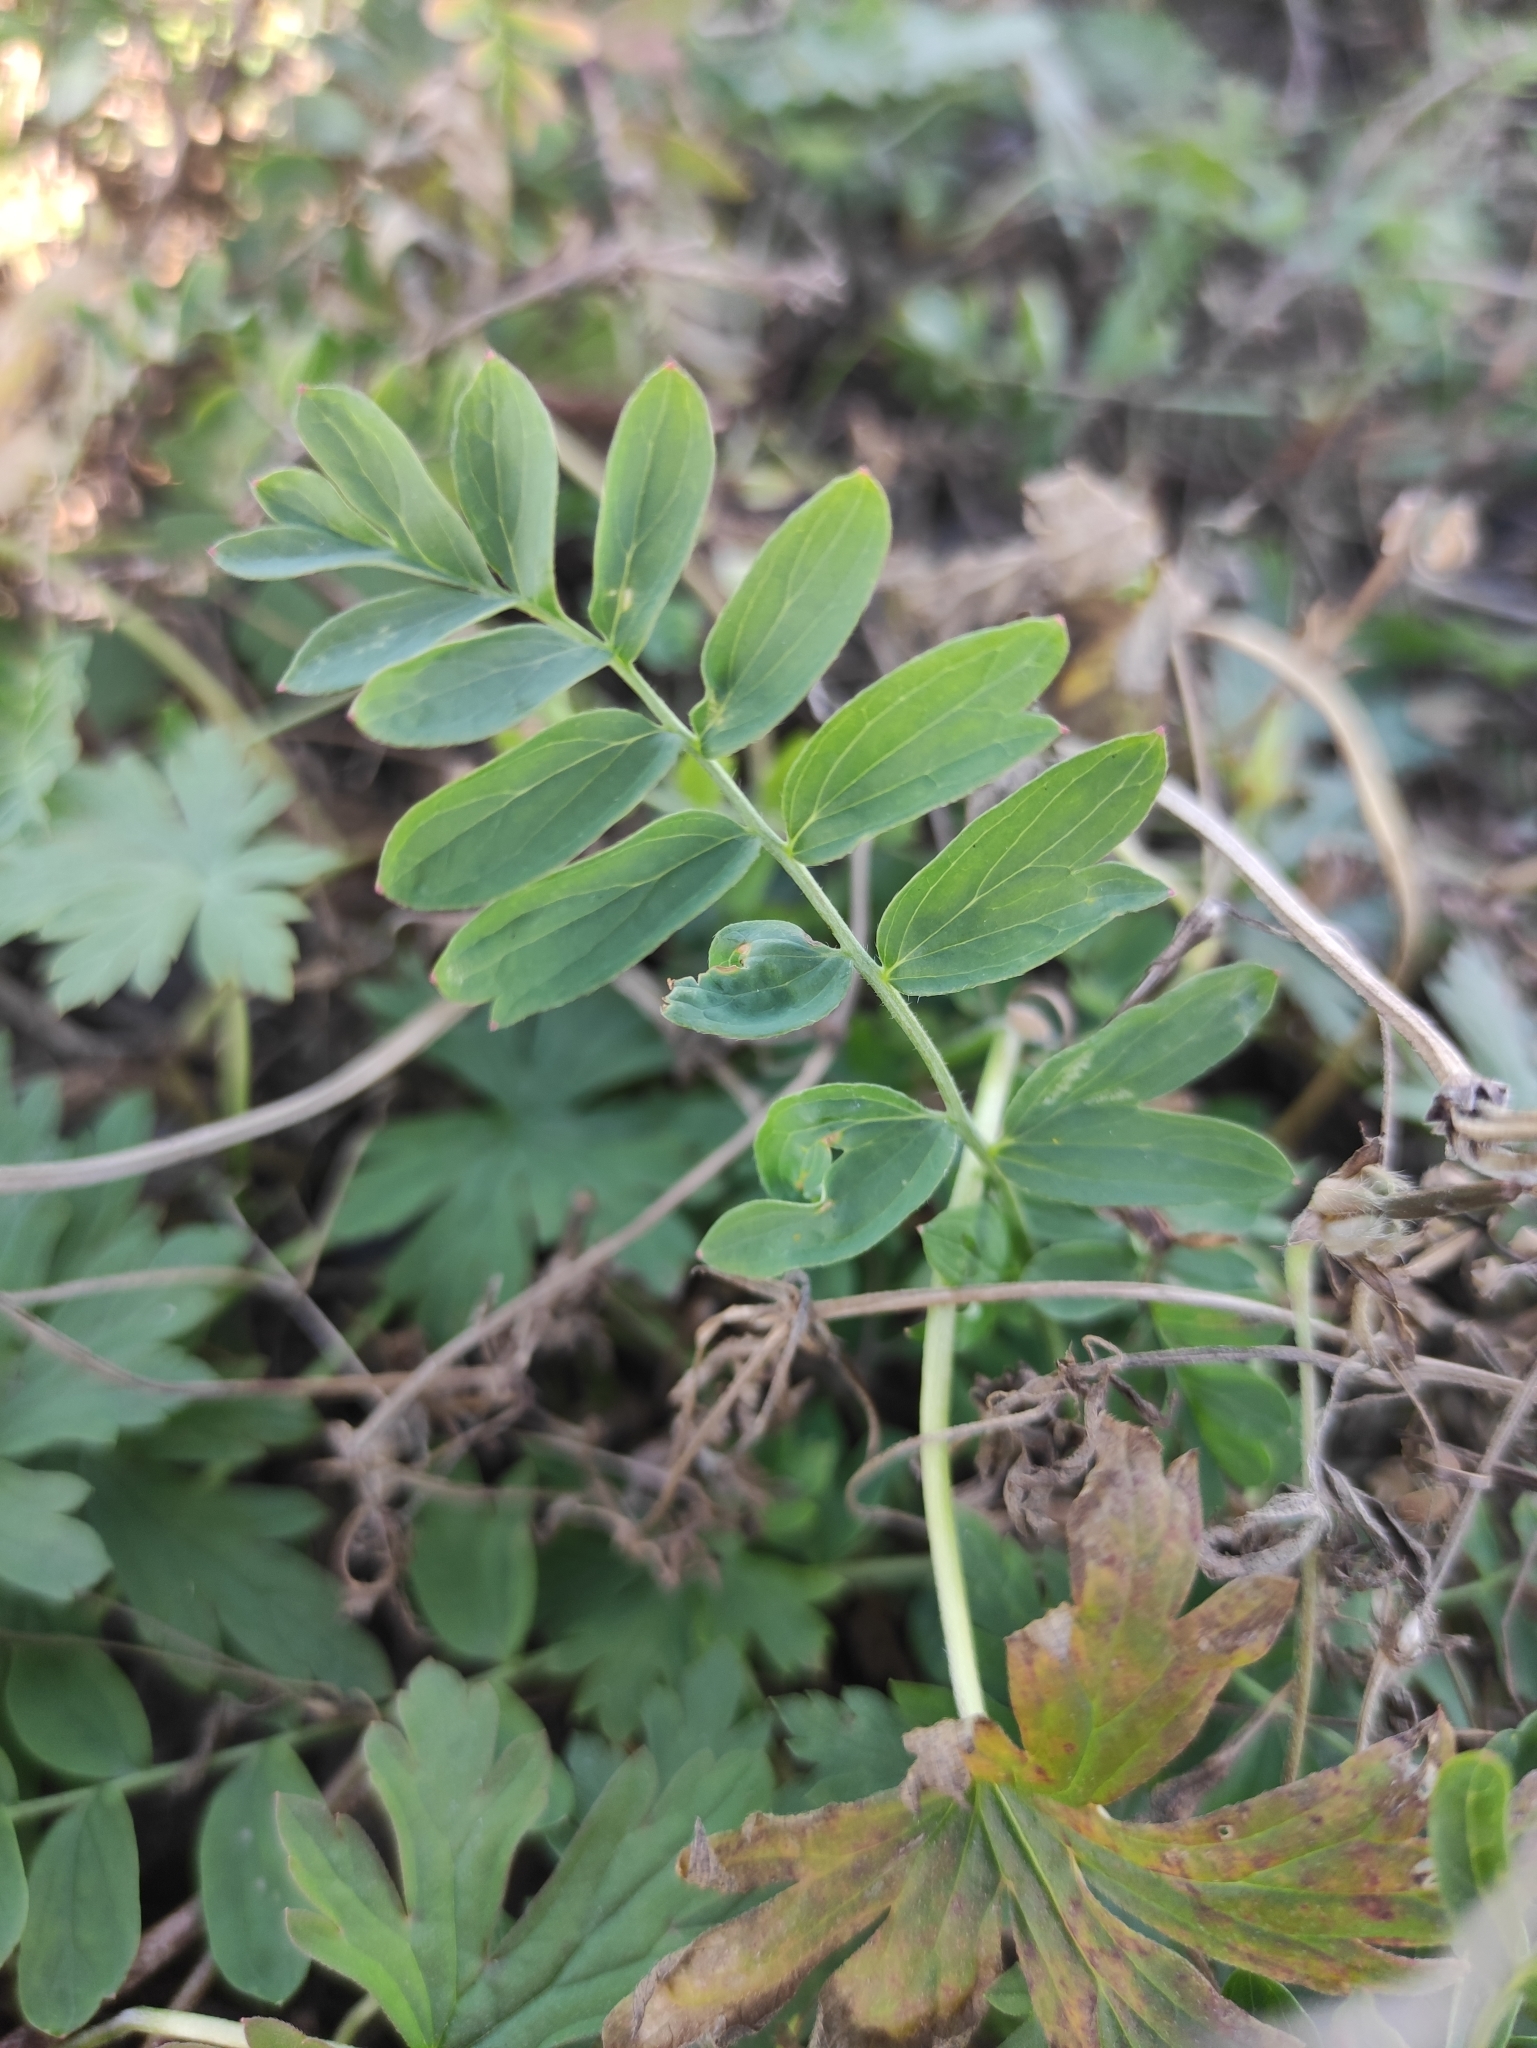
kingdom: Plantae
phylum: Tracheophyta
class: Magnoliopsida
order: Rosales
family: Rosaceae
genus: Sibbaldianthe
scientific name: Sibbaldianthe bifurca
